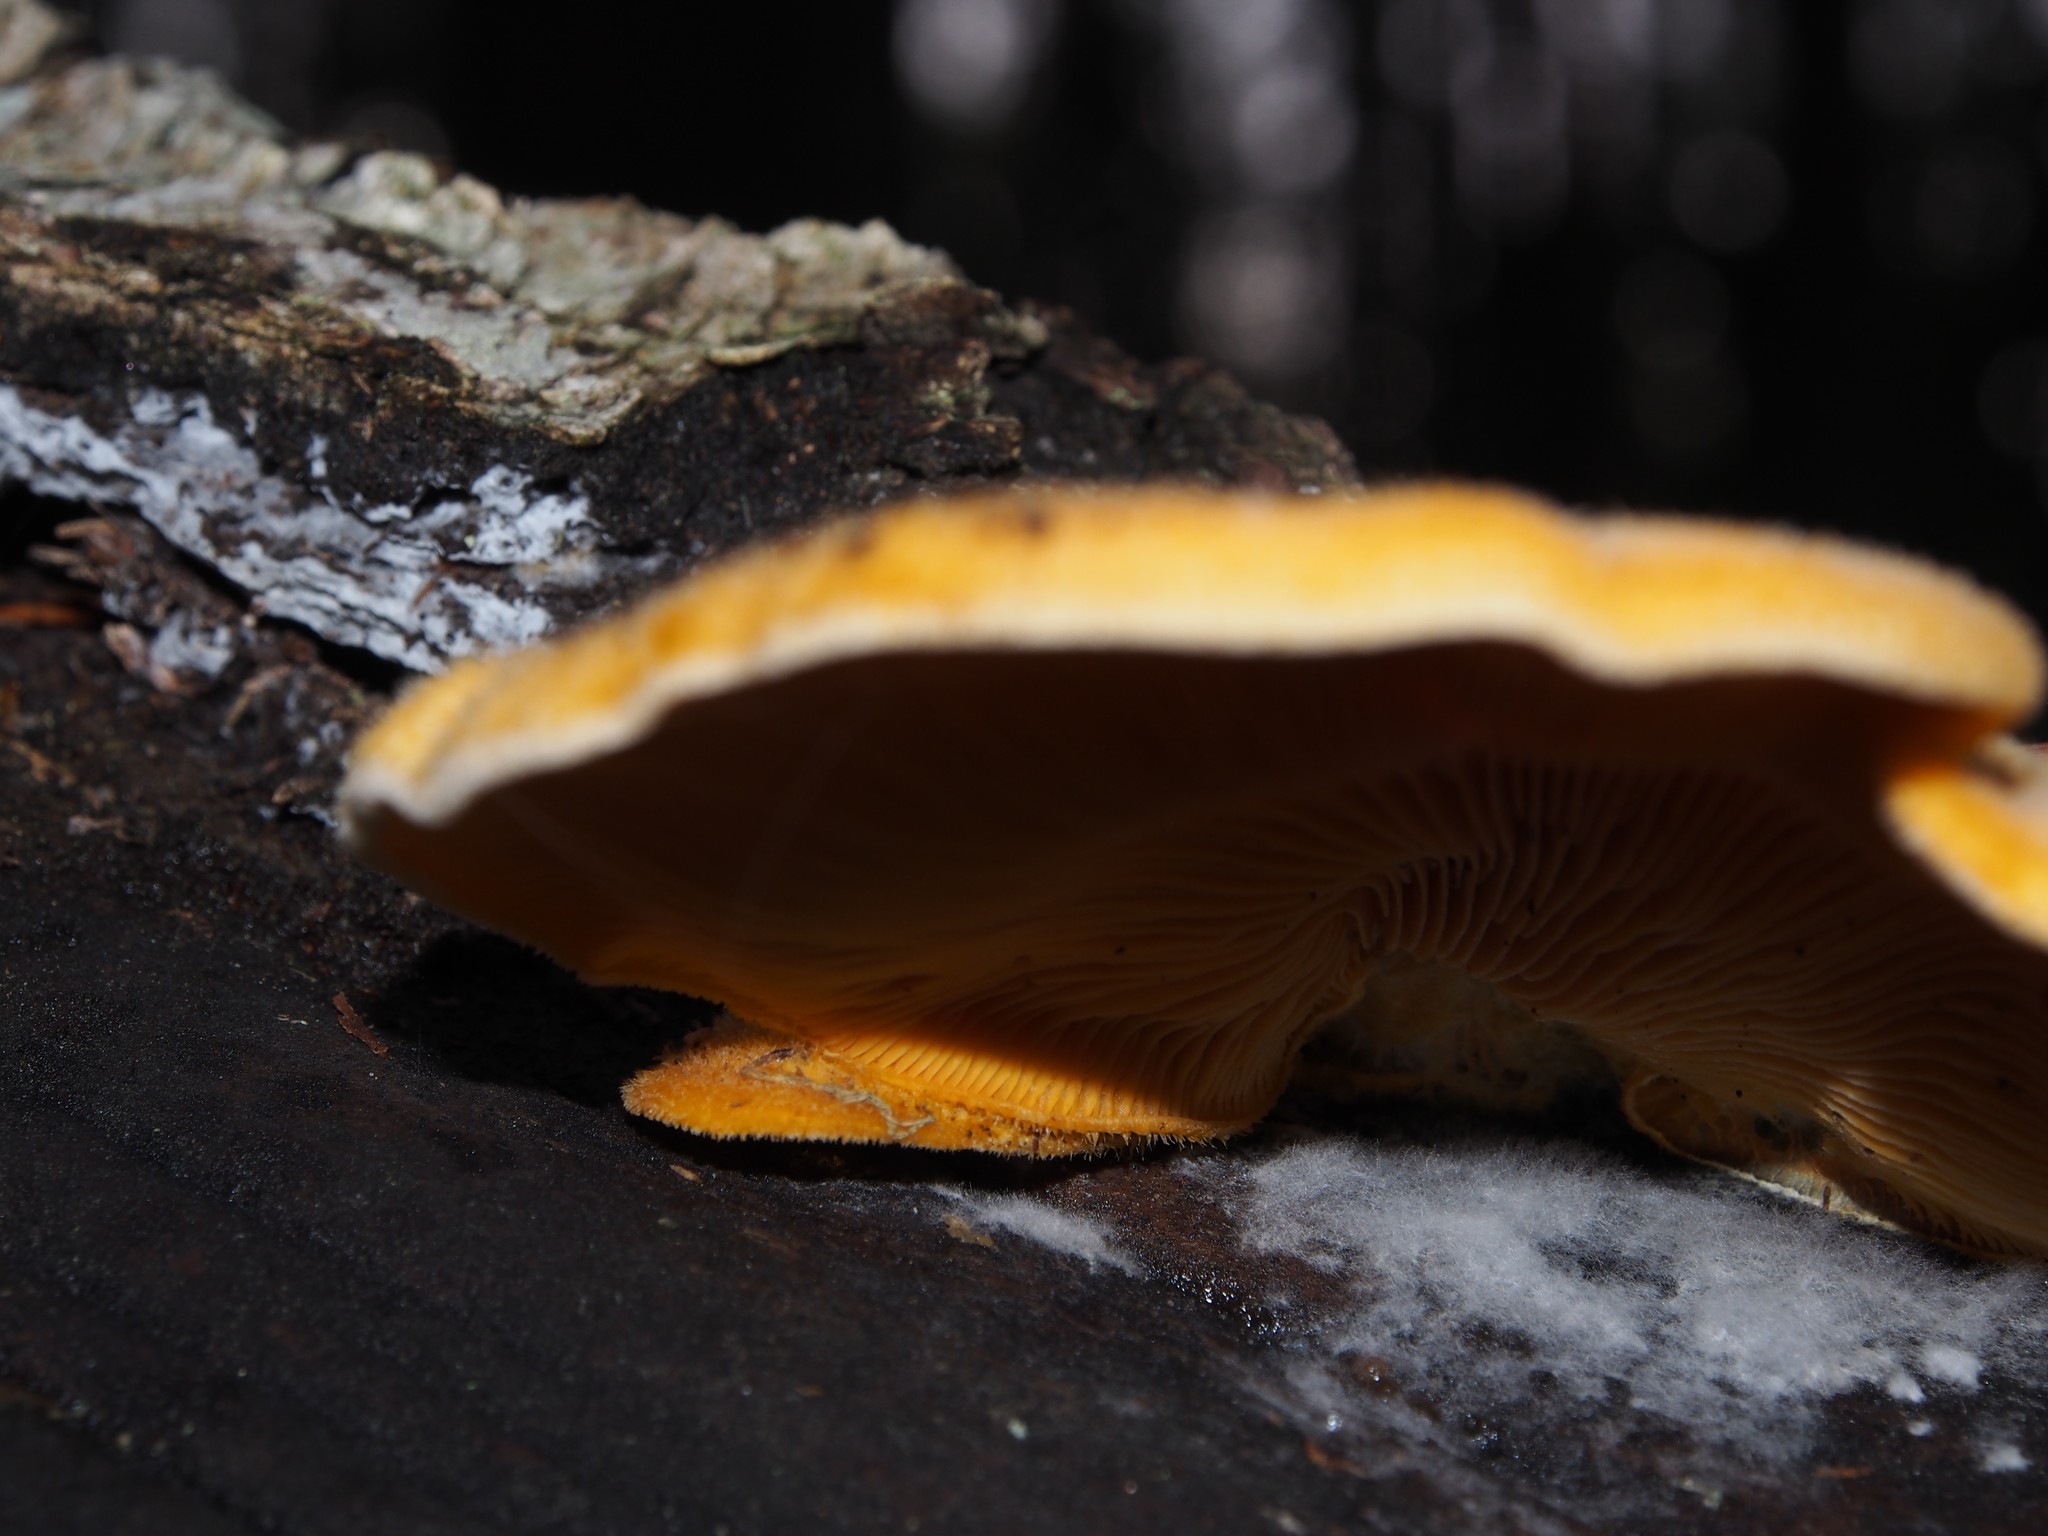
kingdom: Fungi
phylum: Basidiomycota
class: Agaricomycetes
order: Agaricales
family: Phyllotopsidaceae
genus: Phyllotopsis
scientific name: Phyllotopsis nidulans
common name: Orange mock oyster
